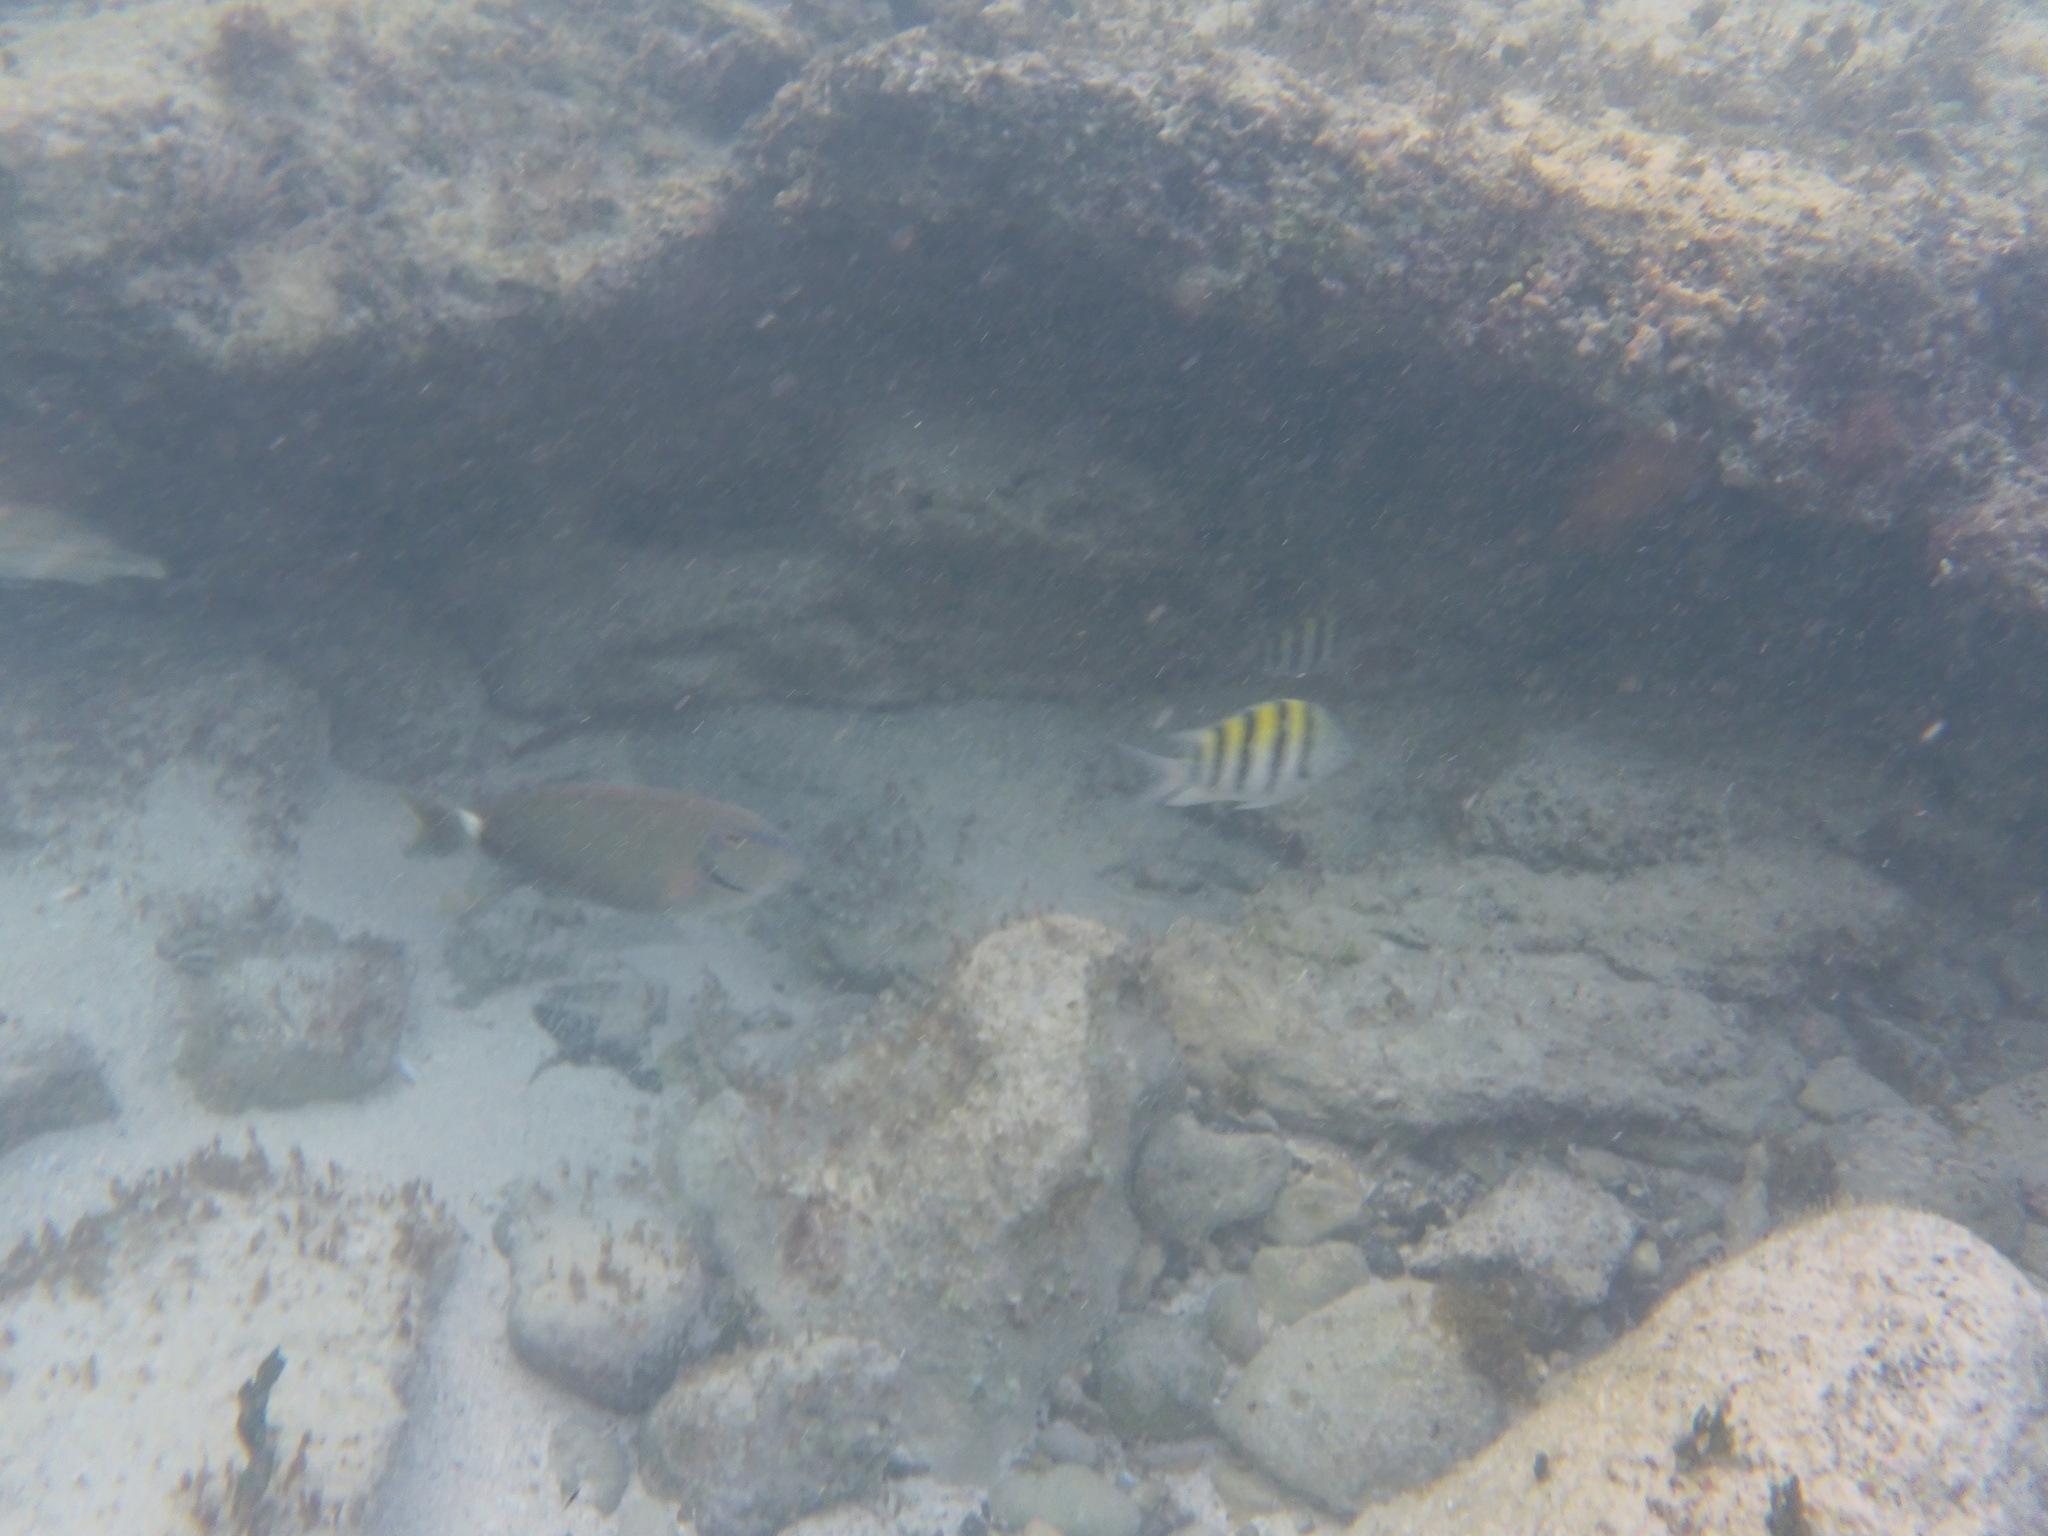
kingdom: Animalia
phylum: Chordata
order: Perciformes
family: Pomacentridae
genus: Abudefduf
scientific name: Abudefduf saxatilis
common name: Sergeant major
